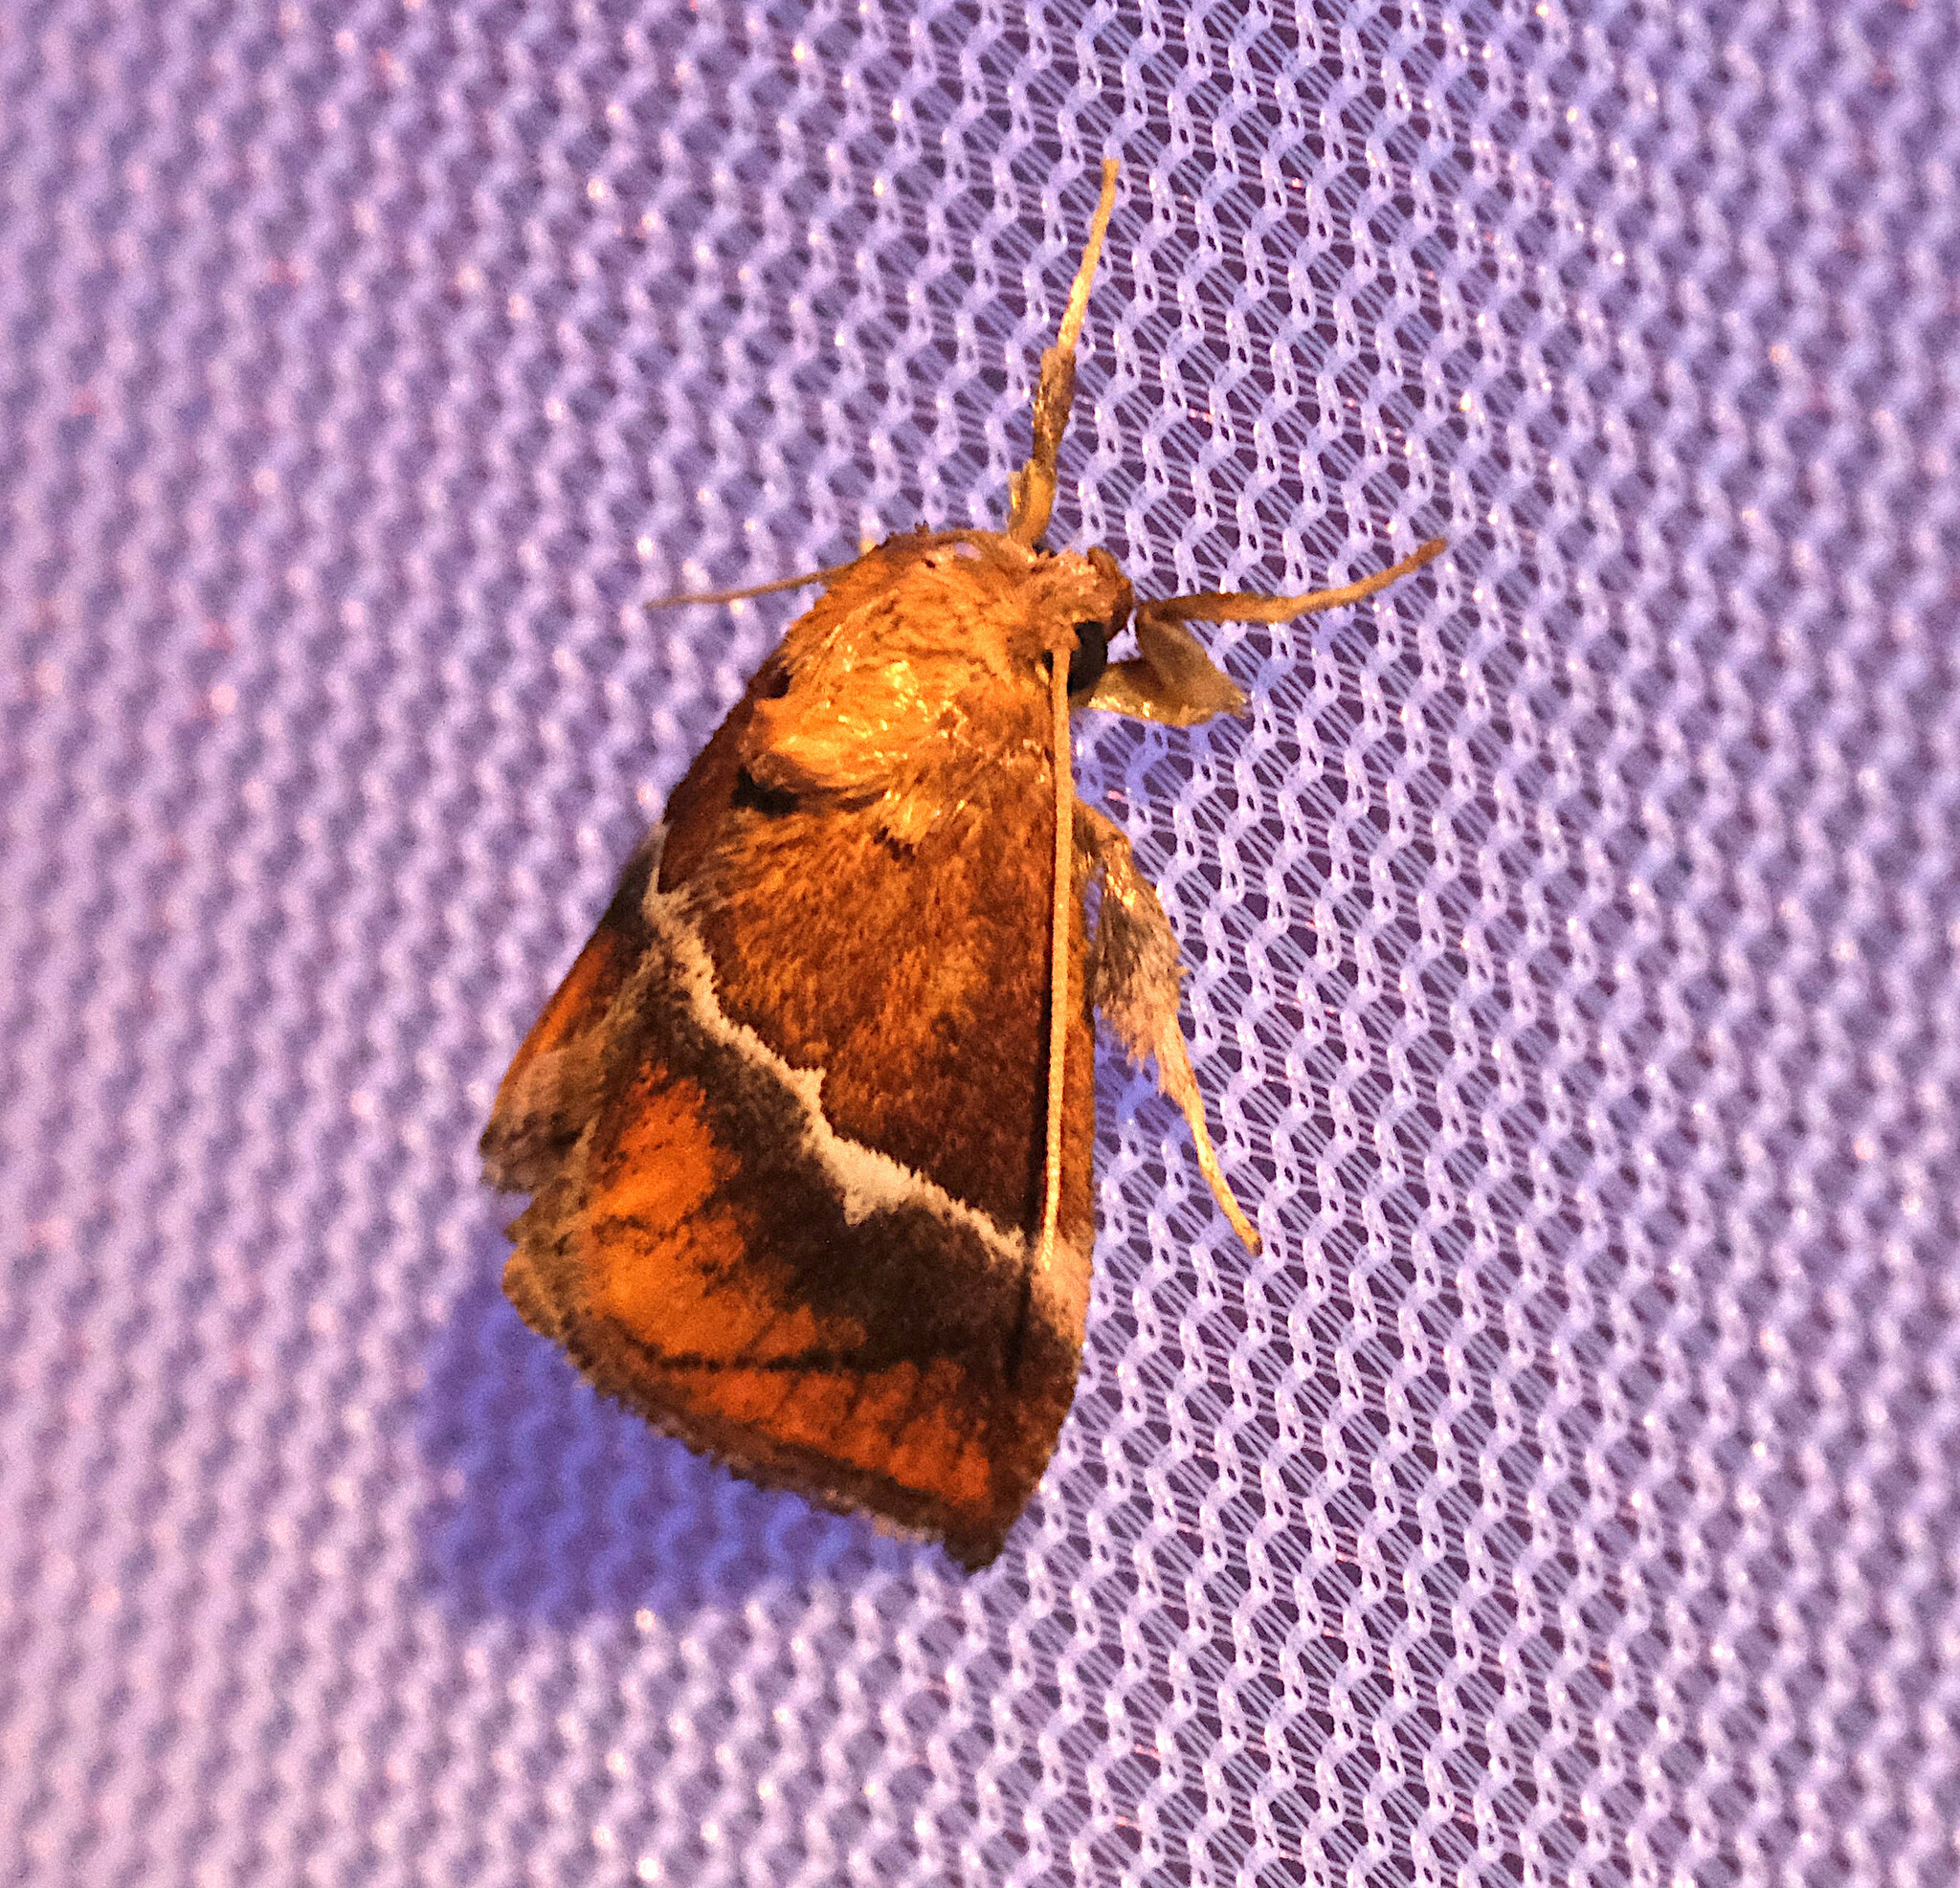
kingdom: Animalia
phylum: Arthropoda
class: Insecta
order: Lepidoptera
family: Limacodidae
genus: Lithacodes
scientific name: Lithacodes fasciola
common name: Yellow-shouldered slug moth
